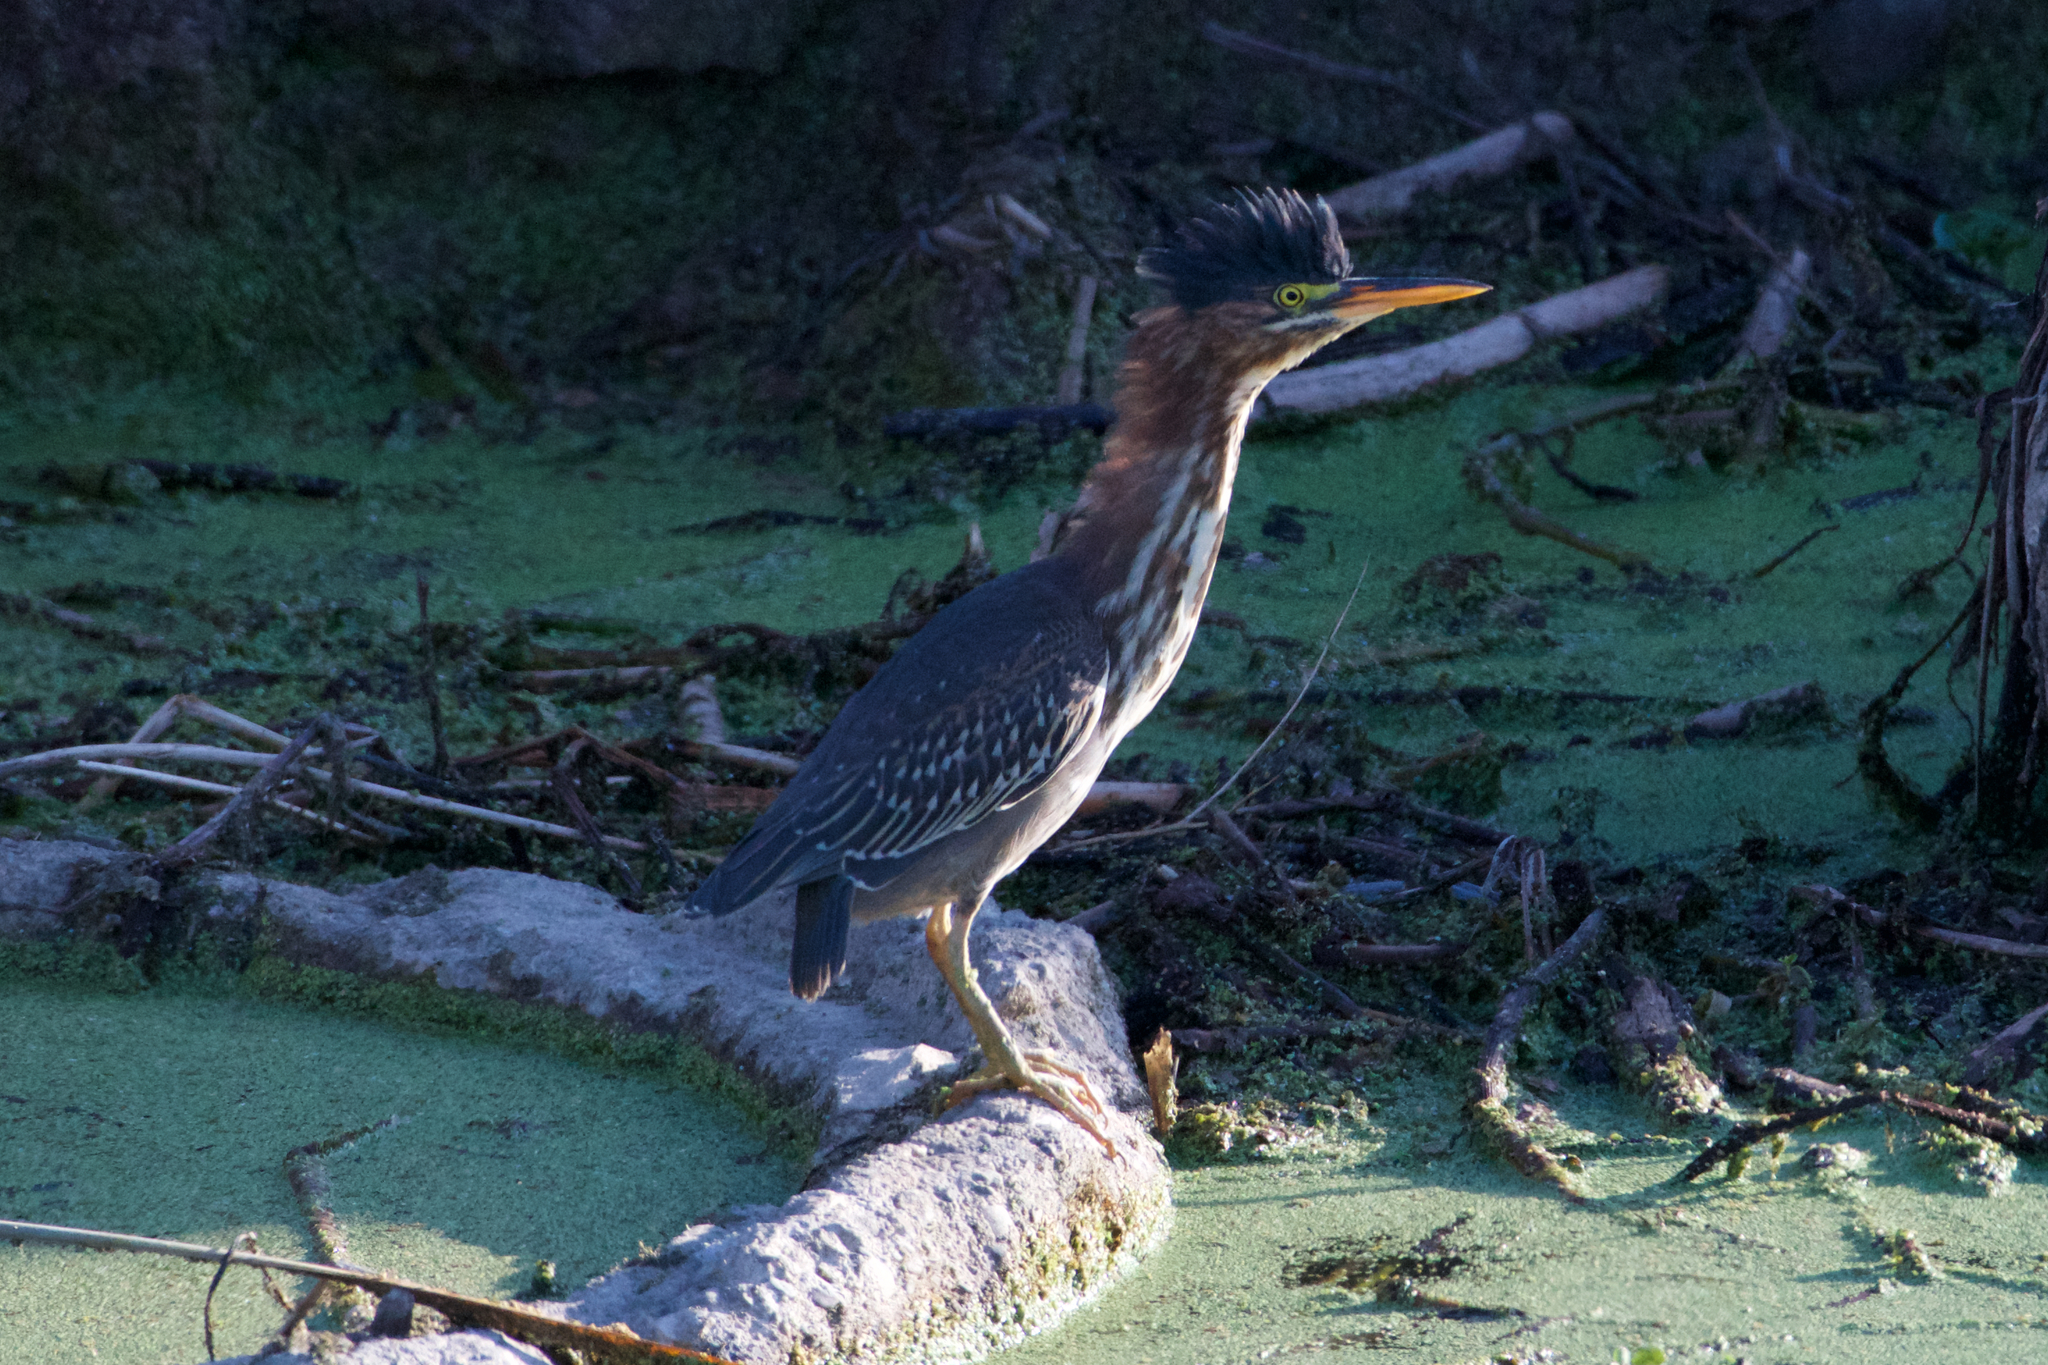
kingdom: Animalia
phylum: Chordata
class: Aves
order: Pelecaniformes
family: Ardeidae
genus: Butorides
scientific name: Butorides virescens
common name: Green heron
